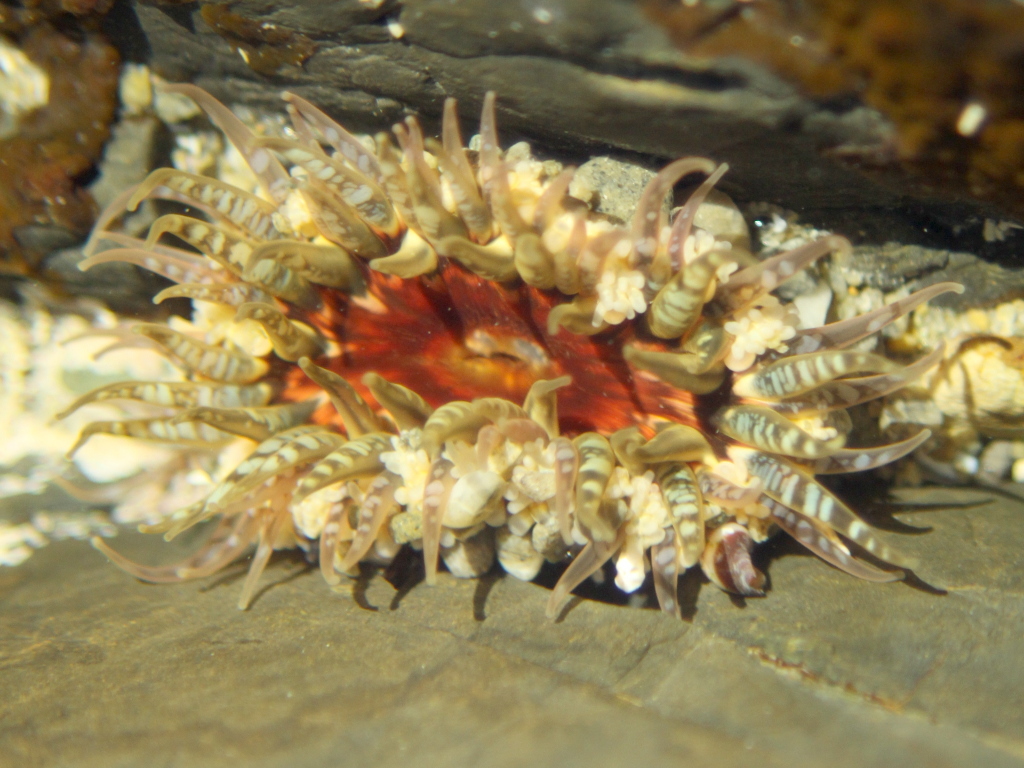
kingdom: Animalia
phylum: Cnidaria
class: Anthozoa
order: Actiniaria
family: Actiniidae
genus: Oulactis
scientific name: Oulactis muscosa
